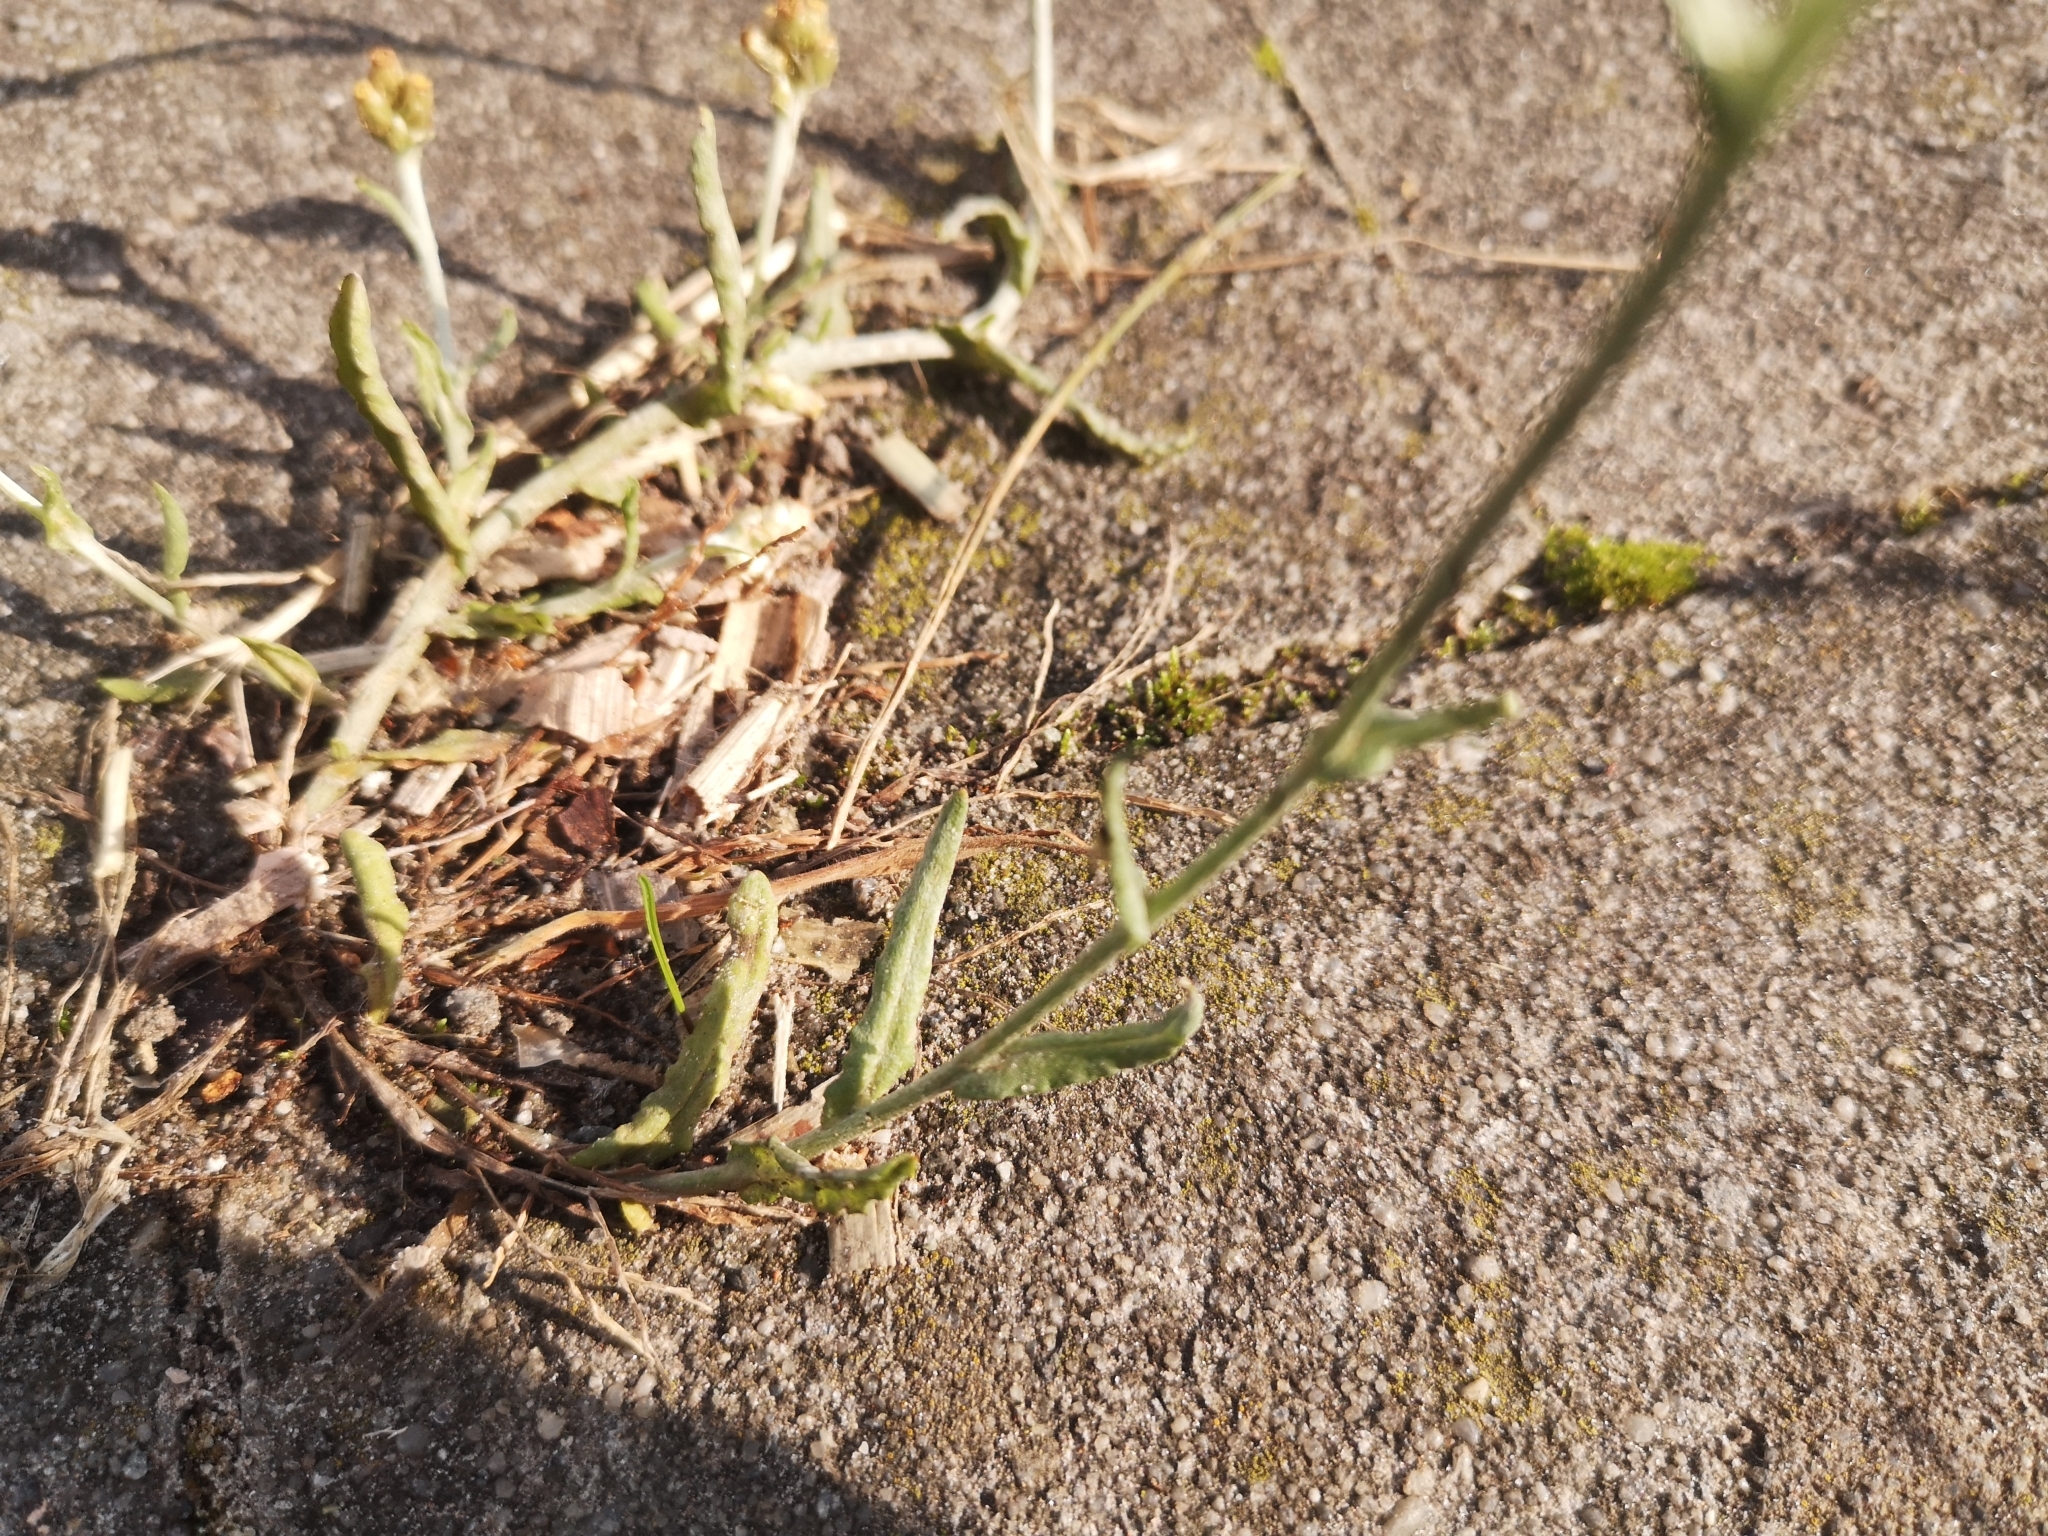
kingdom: Plantae
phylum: Tracheophyta
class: Magnoliopsida
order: Asterales
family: Asteraceae
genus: Helichrysum
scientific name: Helichrysum luteoalbum
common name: Daisy
